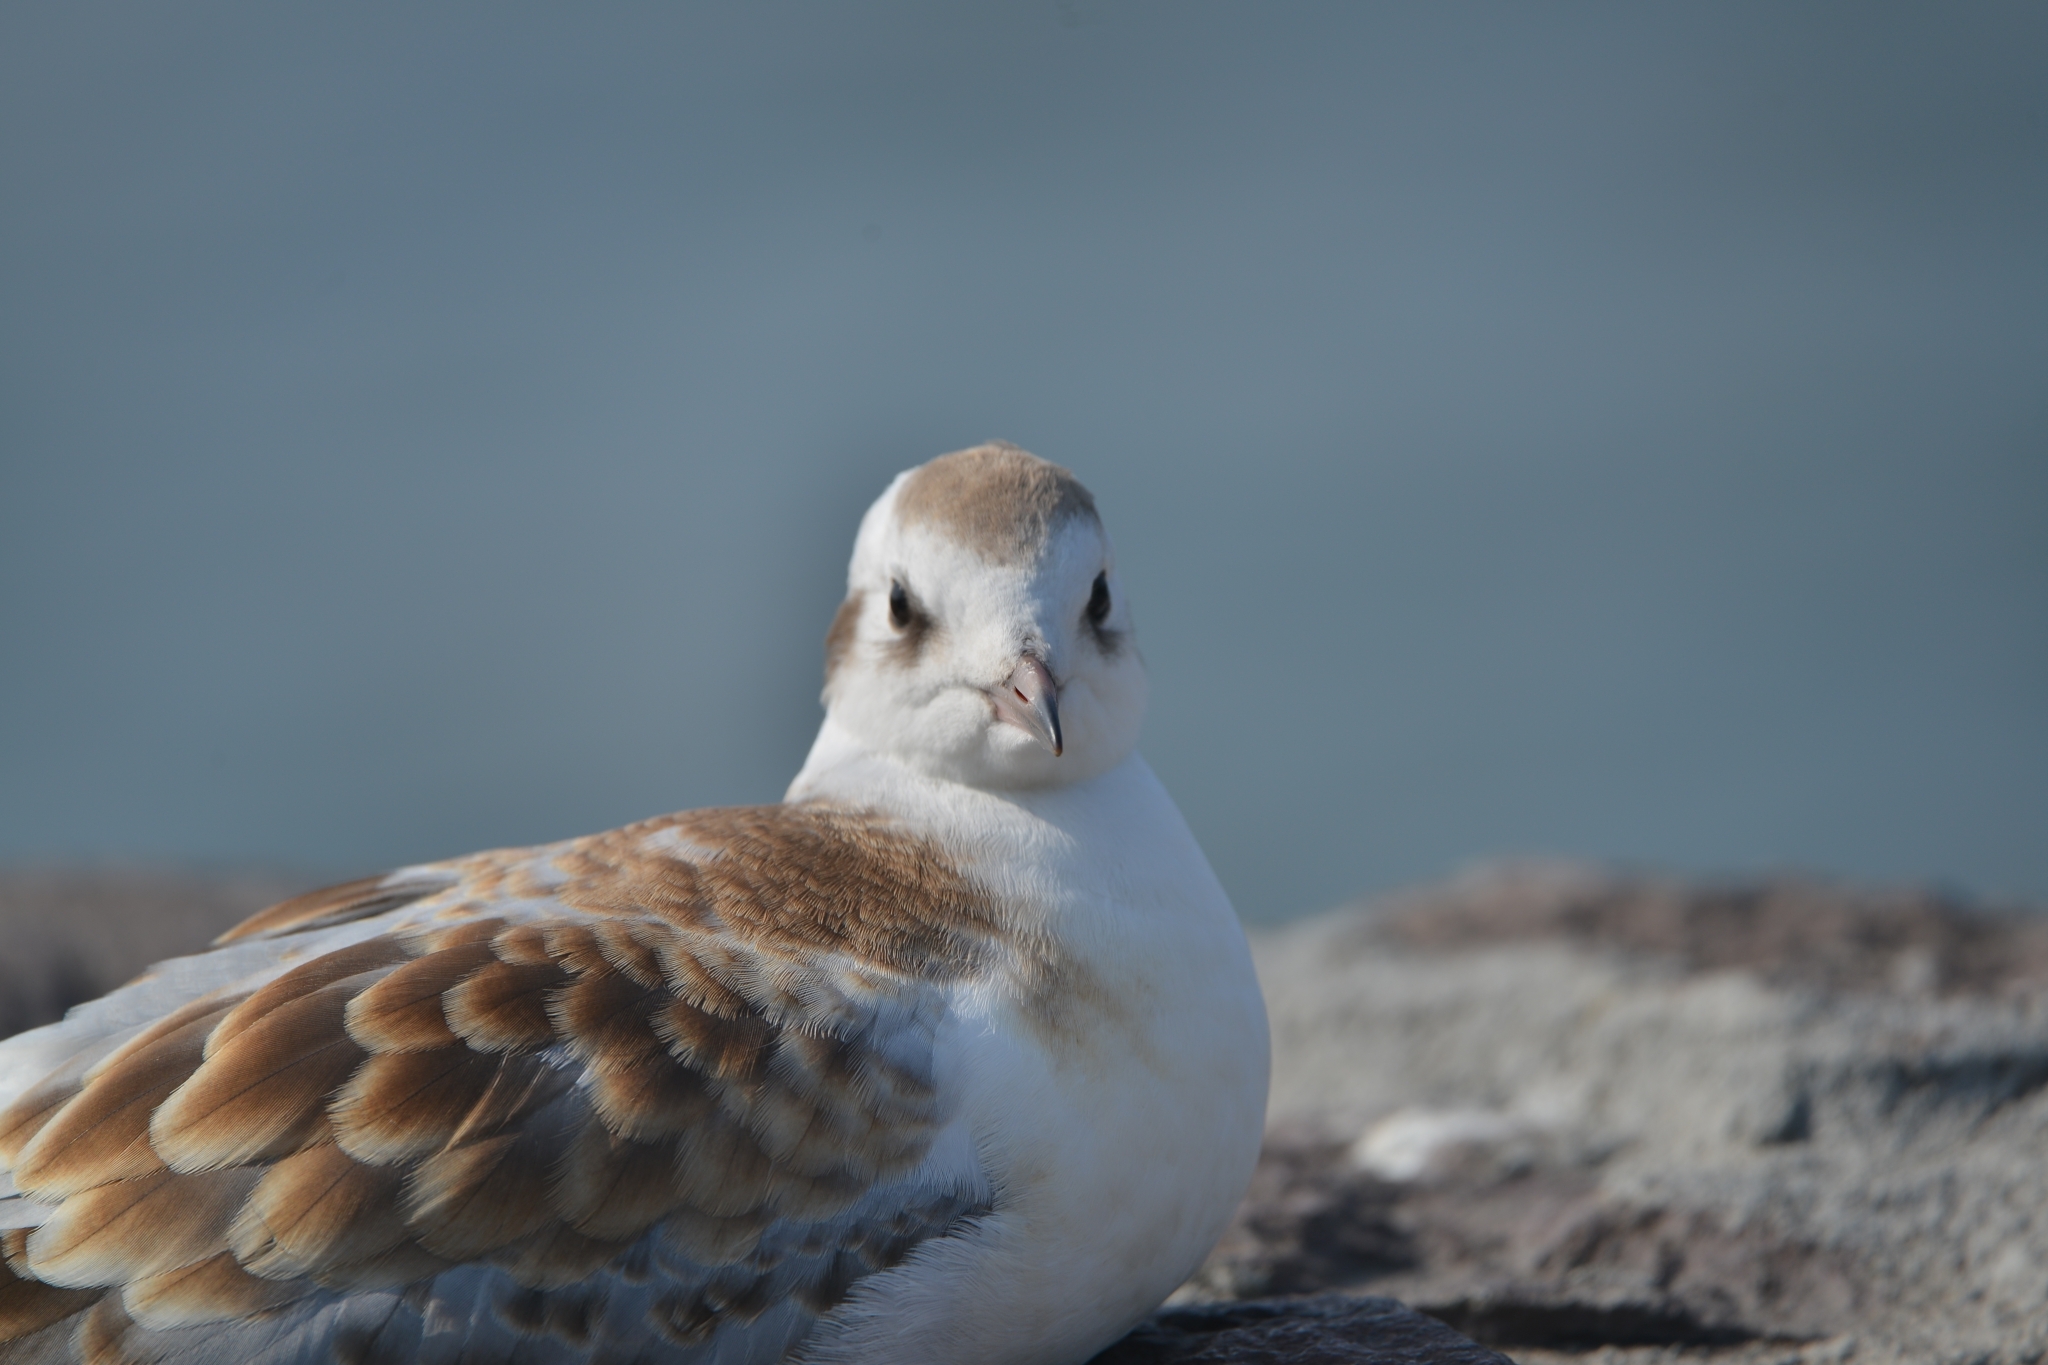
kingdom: Animalia
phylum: Chordata
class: Aves
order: Charadriiformes
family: Laridae
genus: Chroicocephalus
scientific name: Chroicocephalus ridibundus
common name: Black-headed gull
